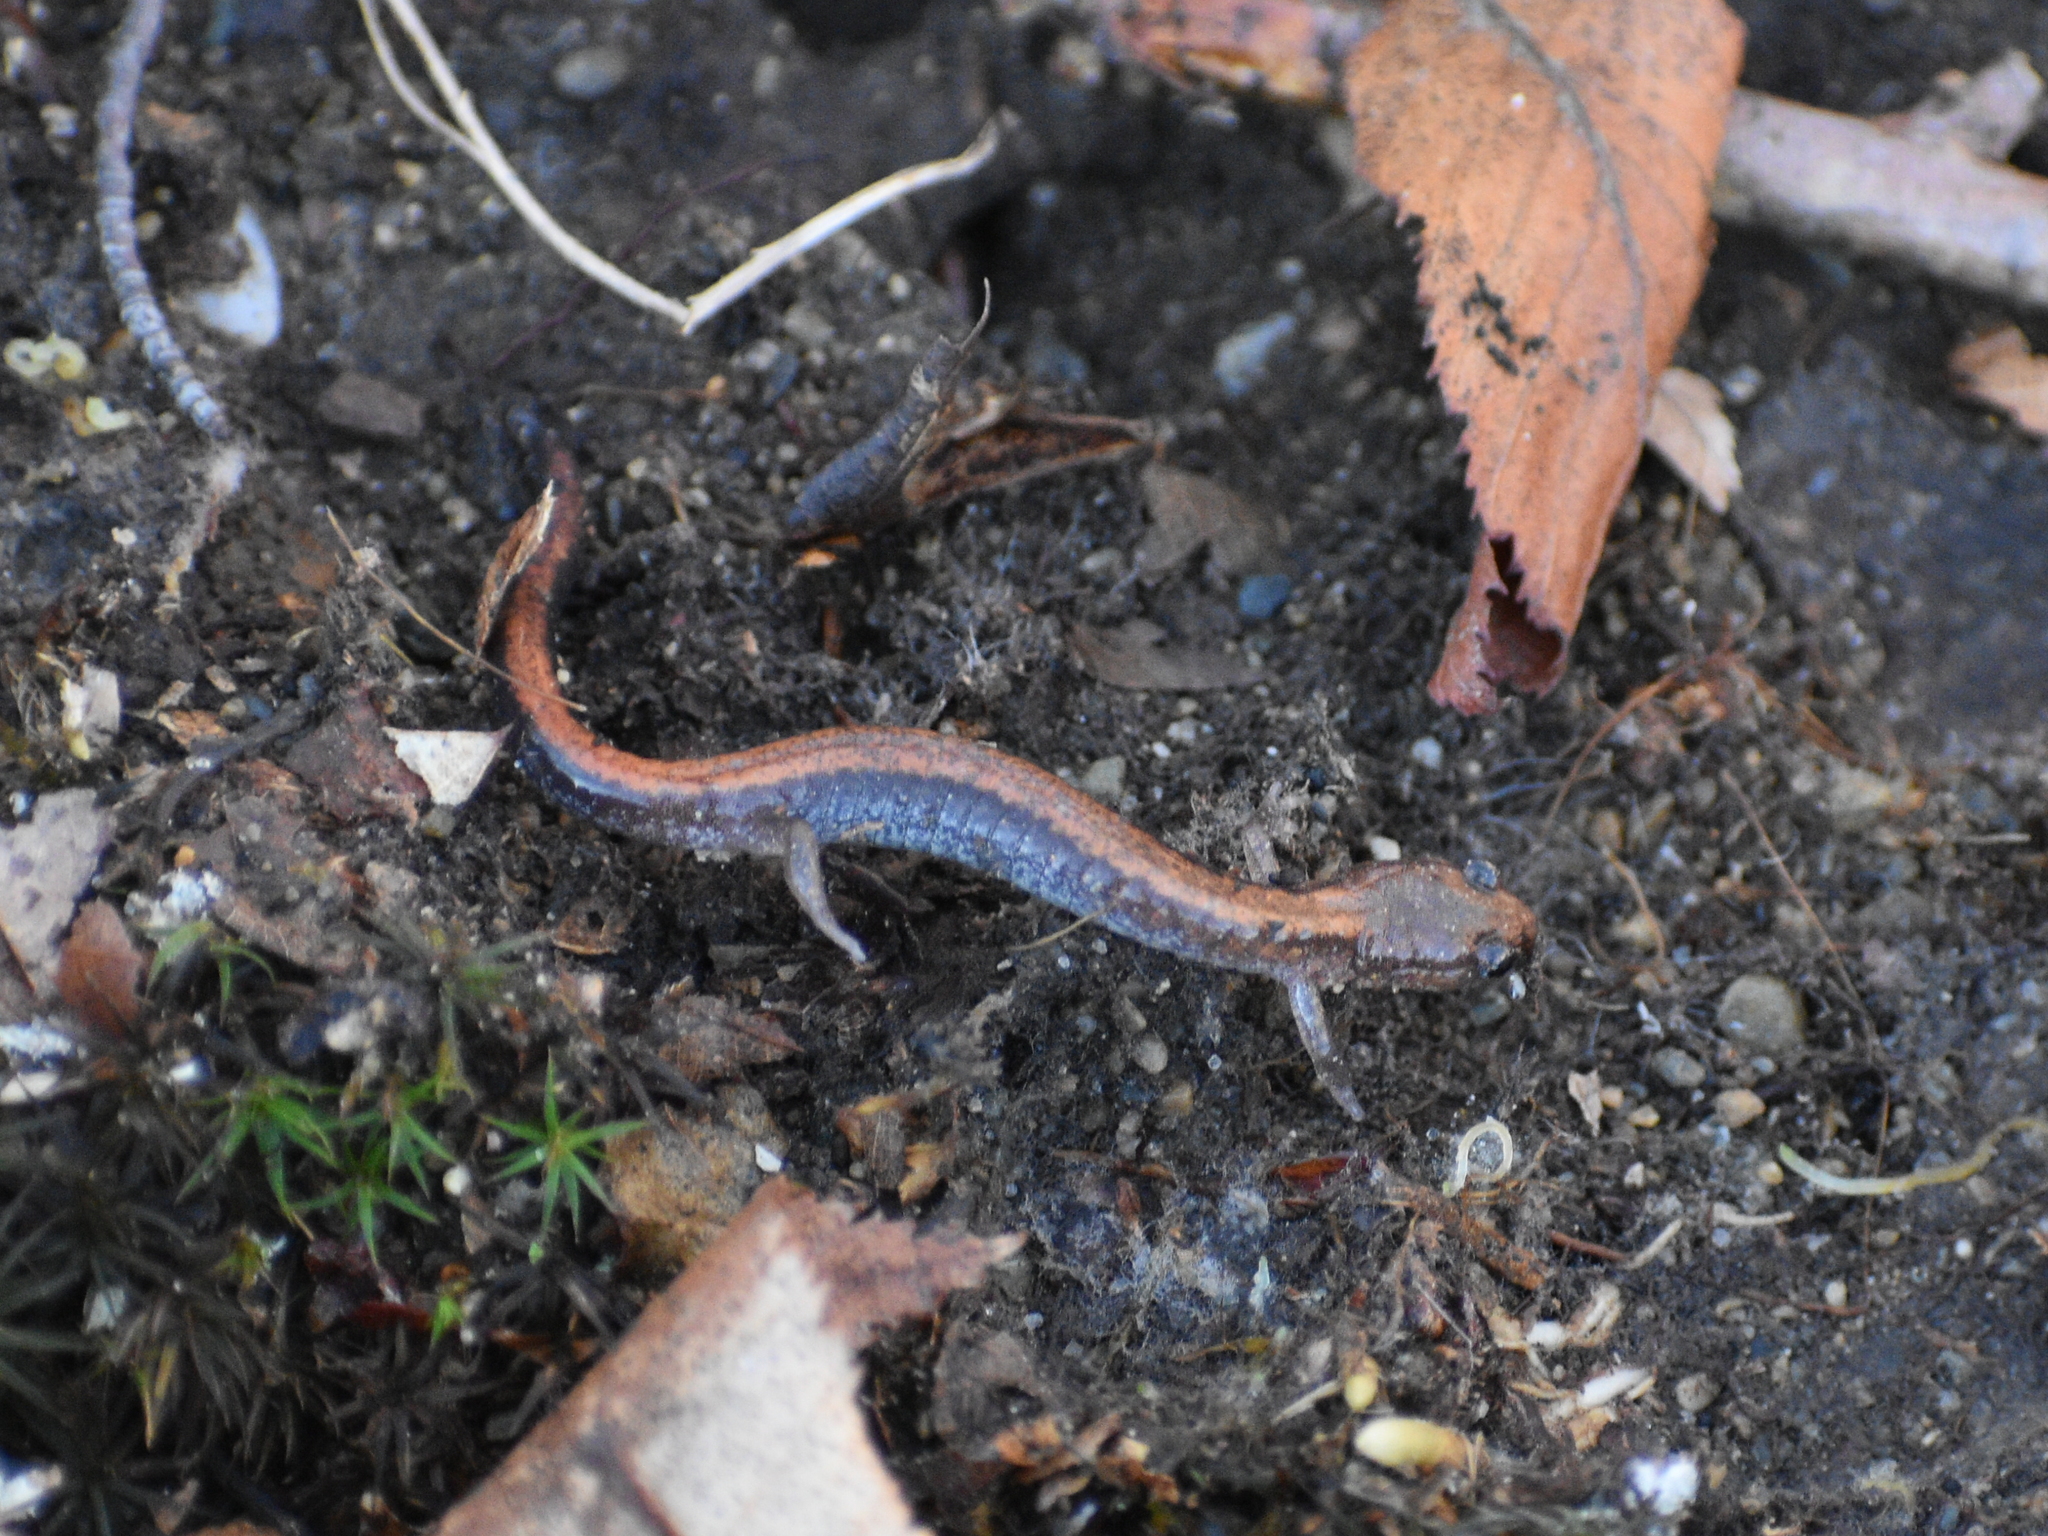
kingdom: Animalia
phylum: Chordata
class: Amphibia
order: Caudata
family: Plethodontidae
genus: Plethodon
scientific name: Plethodon cinereus
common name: Redback salamander
